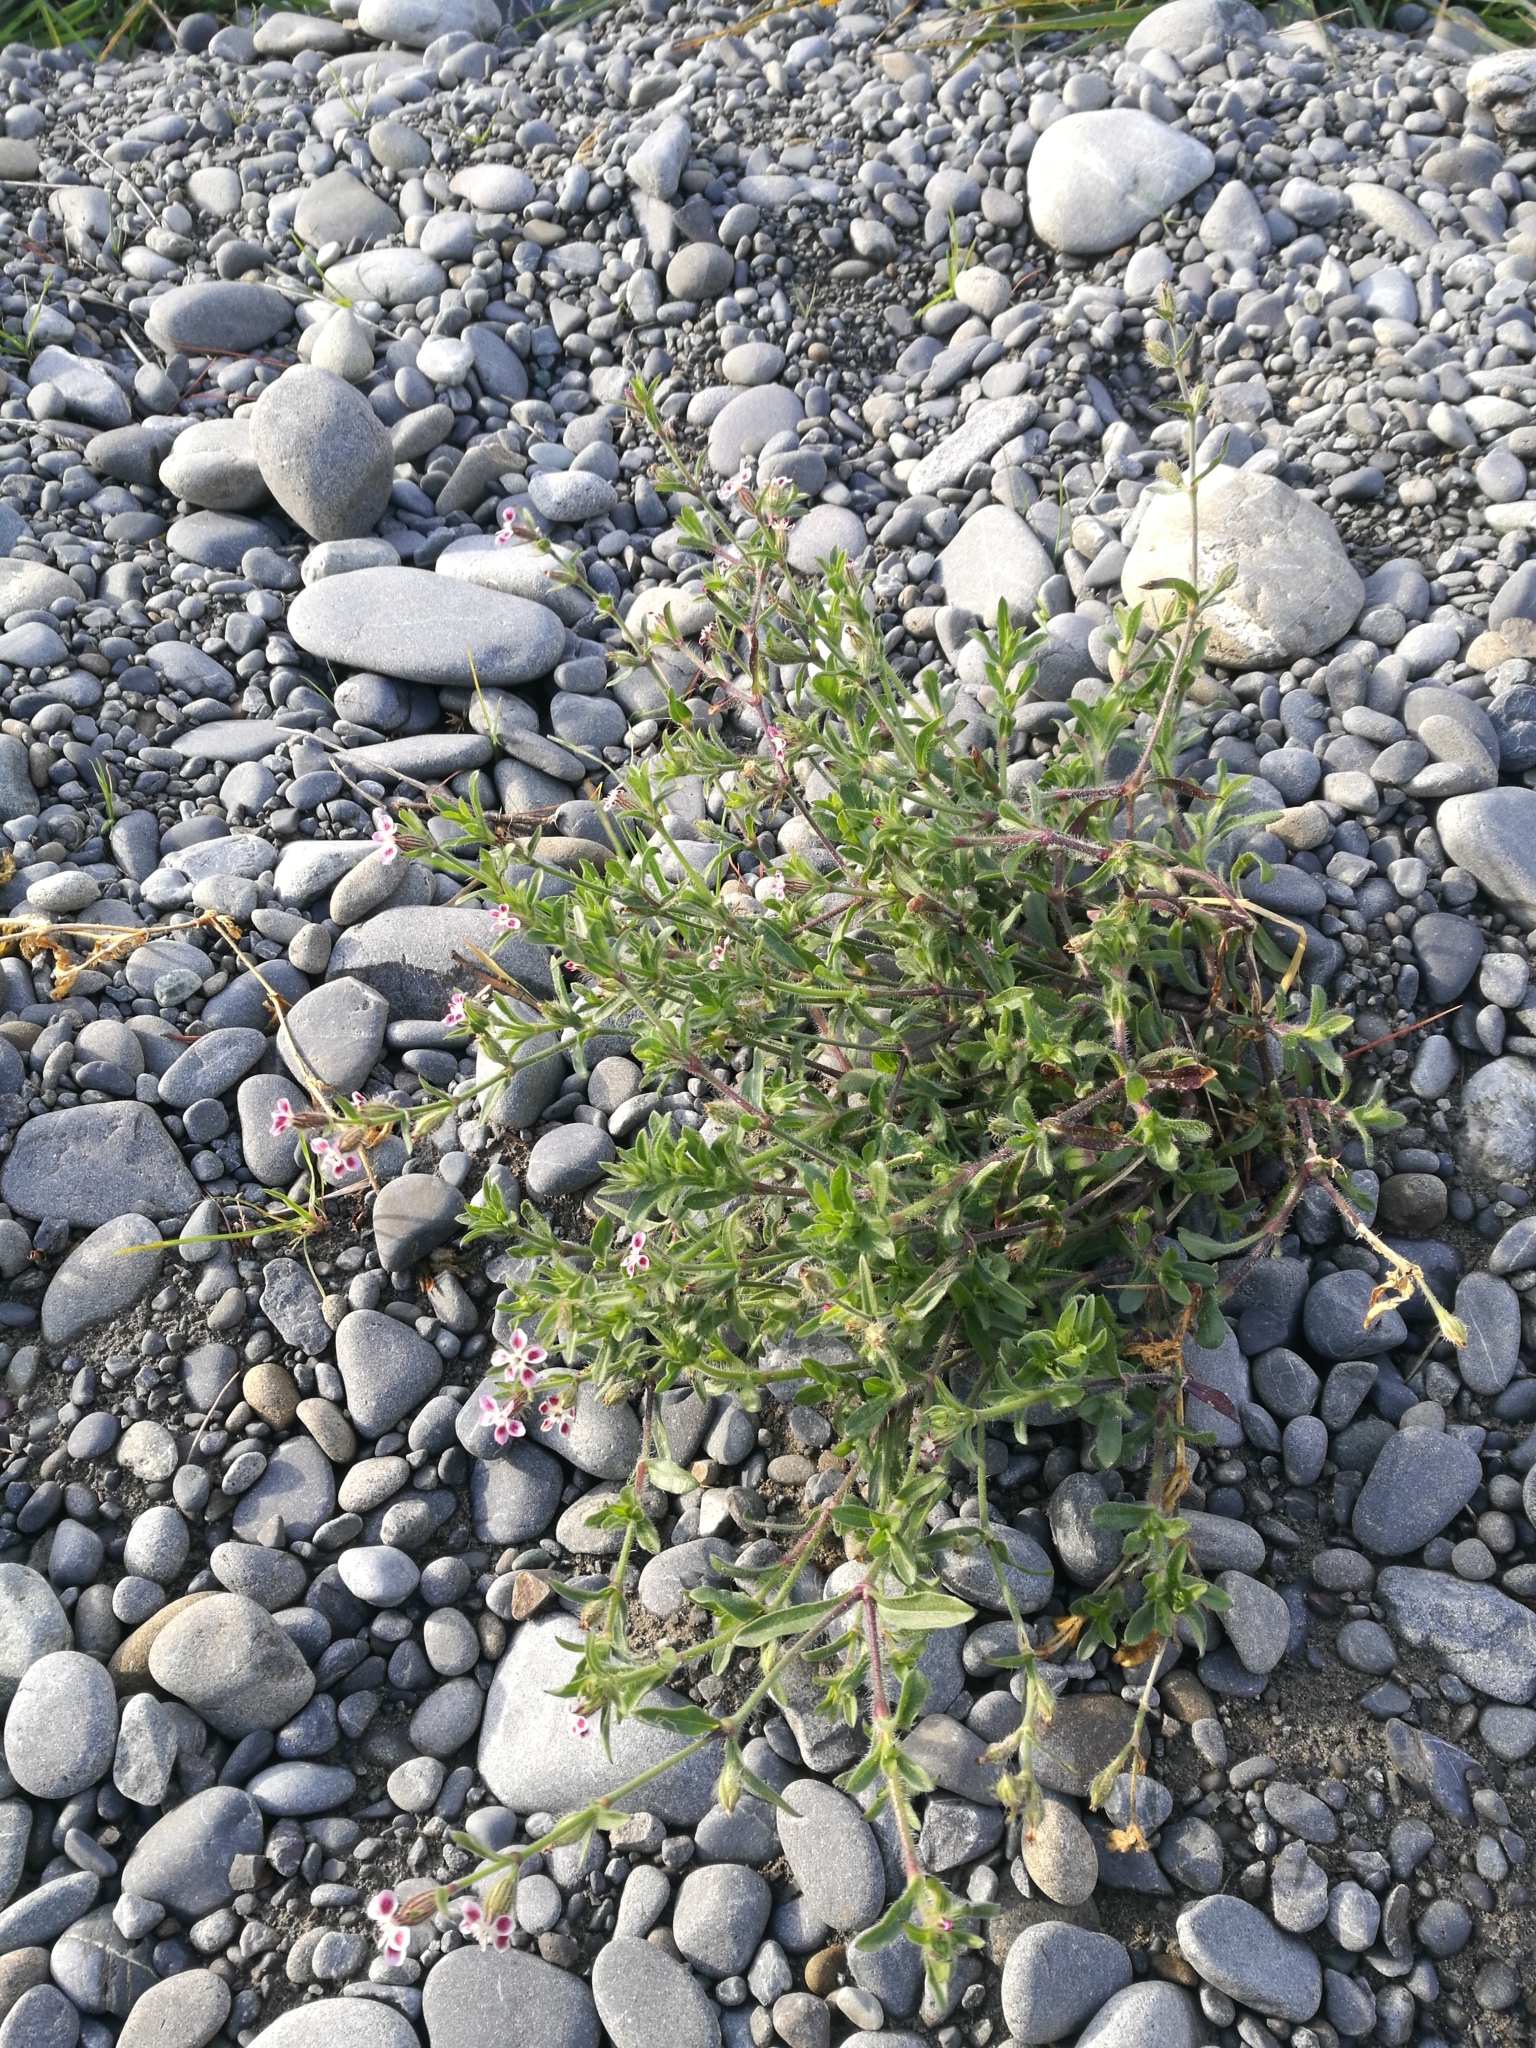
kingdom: Plantae
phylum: Tracheophyta
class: Magnoliopsida
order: Caryophyllales
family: Caryophyllaceae
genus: Silene
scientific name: Silene gallica
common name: Small-flowered catchfly
